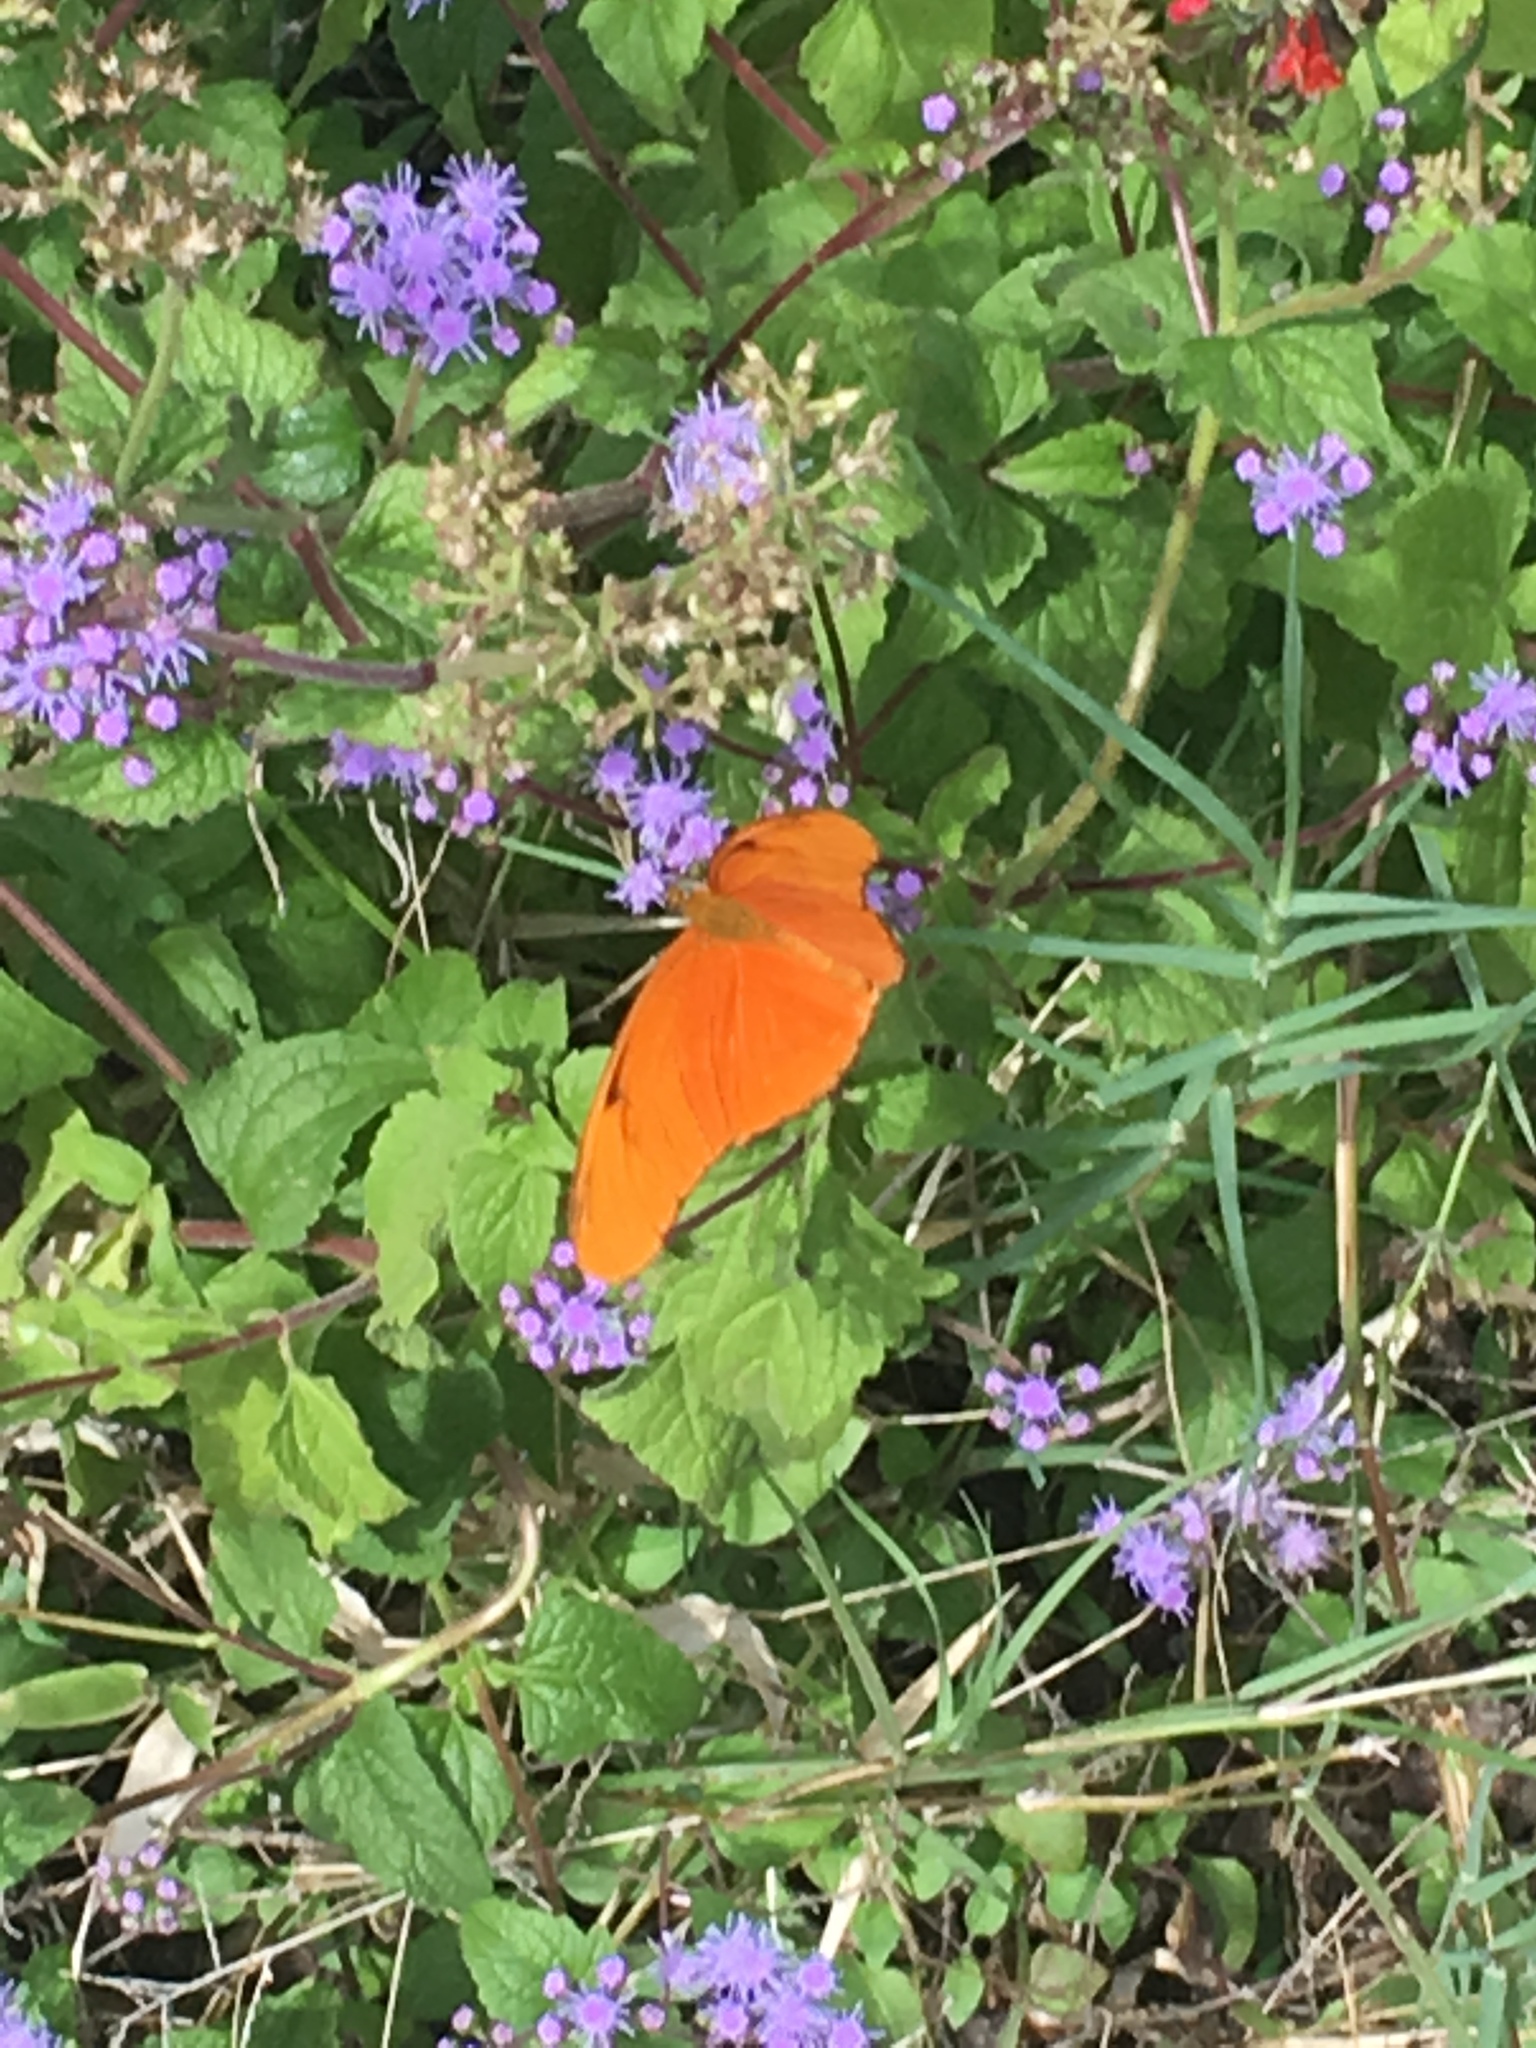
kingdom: Animalia
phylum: Arthropoda
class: Insecta
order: Lepidoptera
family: Nymphalidae
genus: Dryas
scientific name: Dryas iulia
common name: Flambeau
